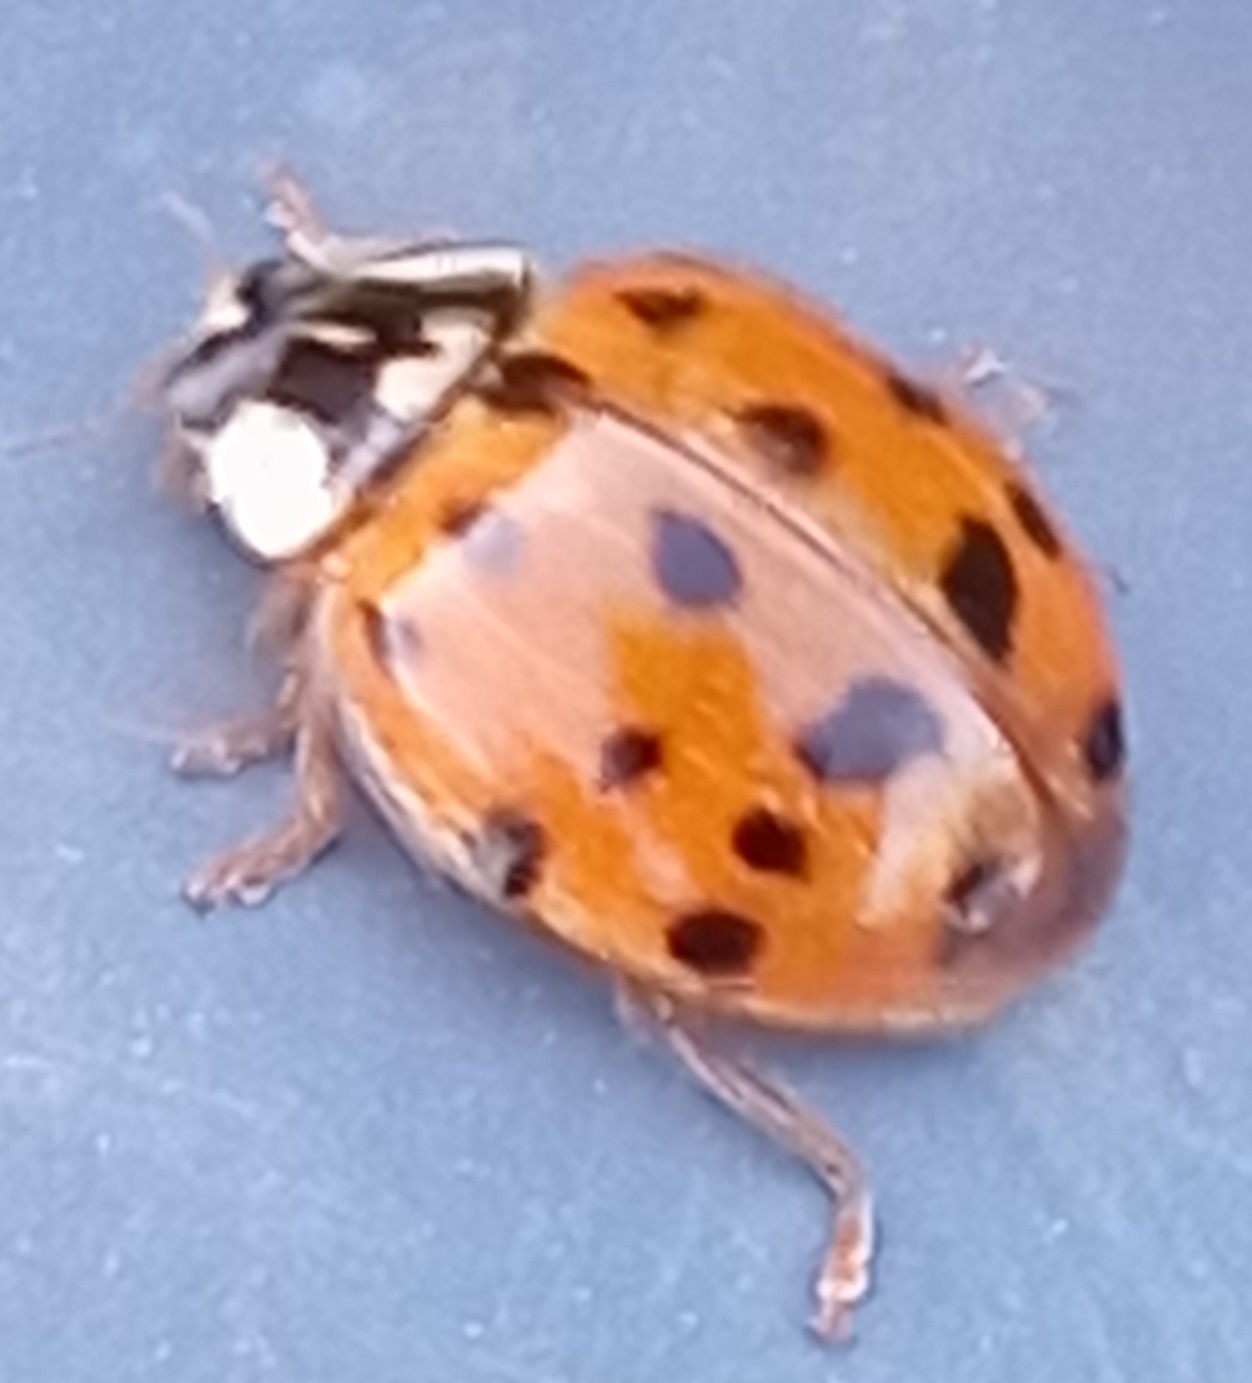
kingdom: Animalia
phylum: Arthropoda
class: Insecta
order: Coleoptera
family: Coccinellidae
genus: Harmonia
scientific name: Harmonia axyridis
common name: Harlequin ladybird
